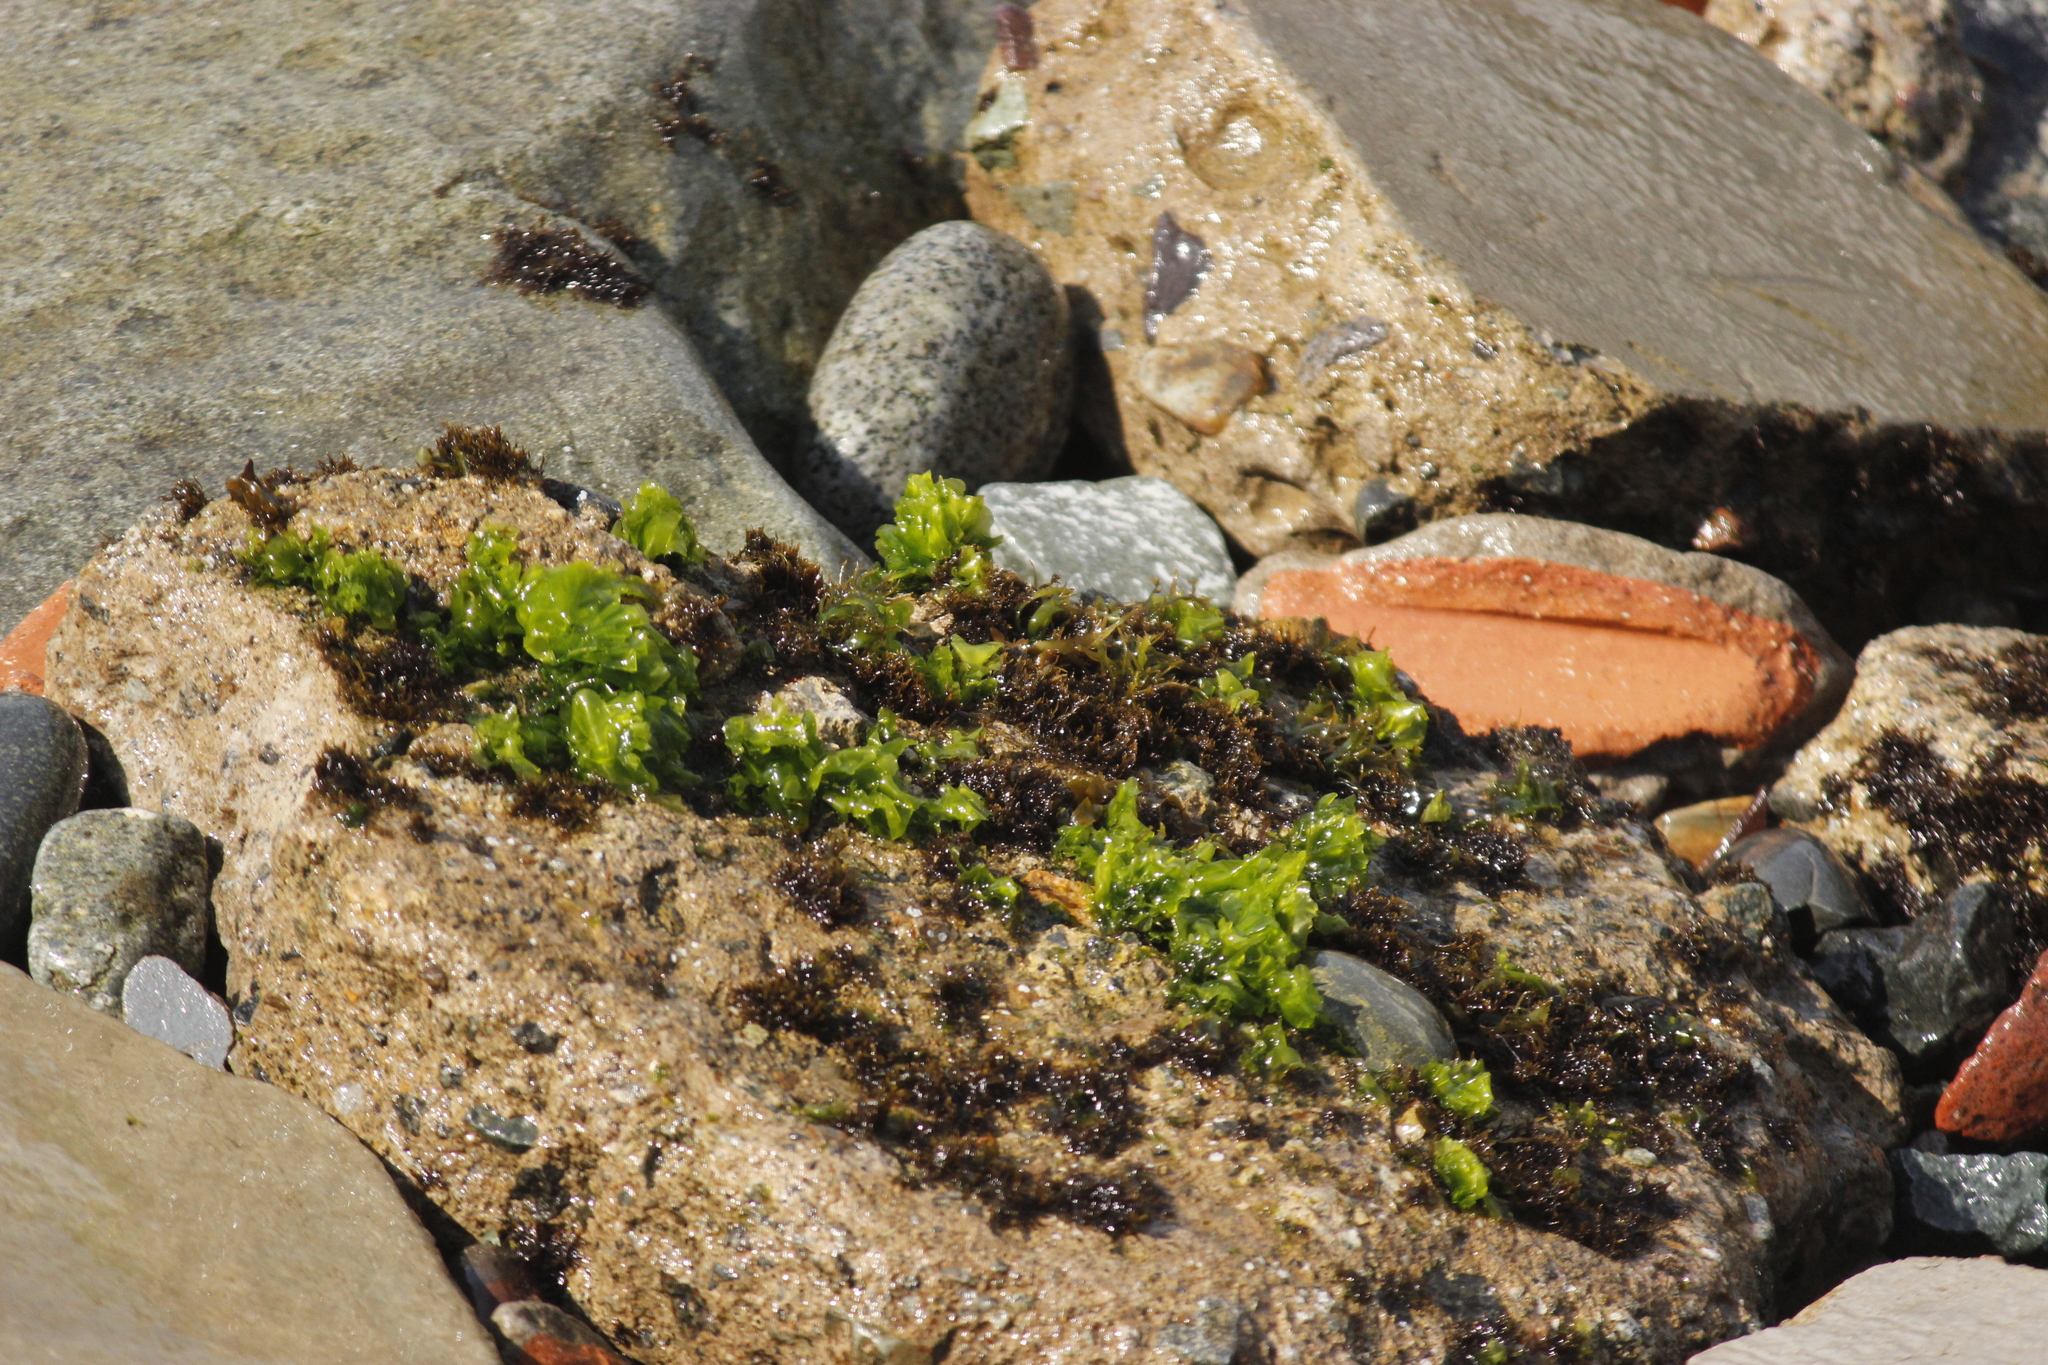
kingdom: Plantae
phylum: Chlorophyta
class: Ulvophyceae
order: Ulvales
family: Ulvaceae
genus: Ulva
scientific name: Ulva lactuca
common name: Sea lettuce
